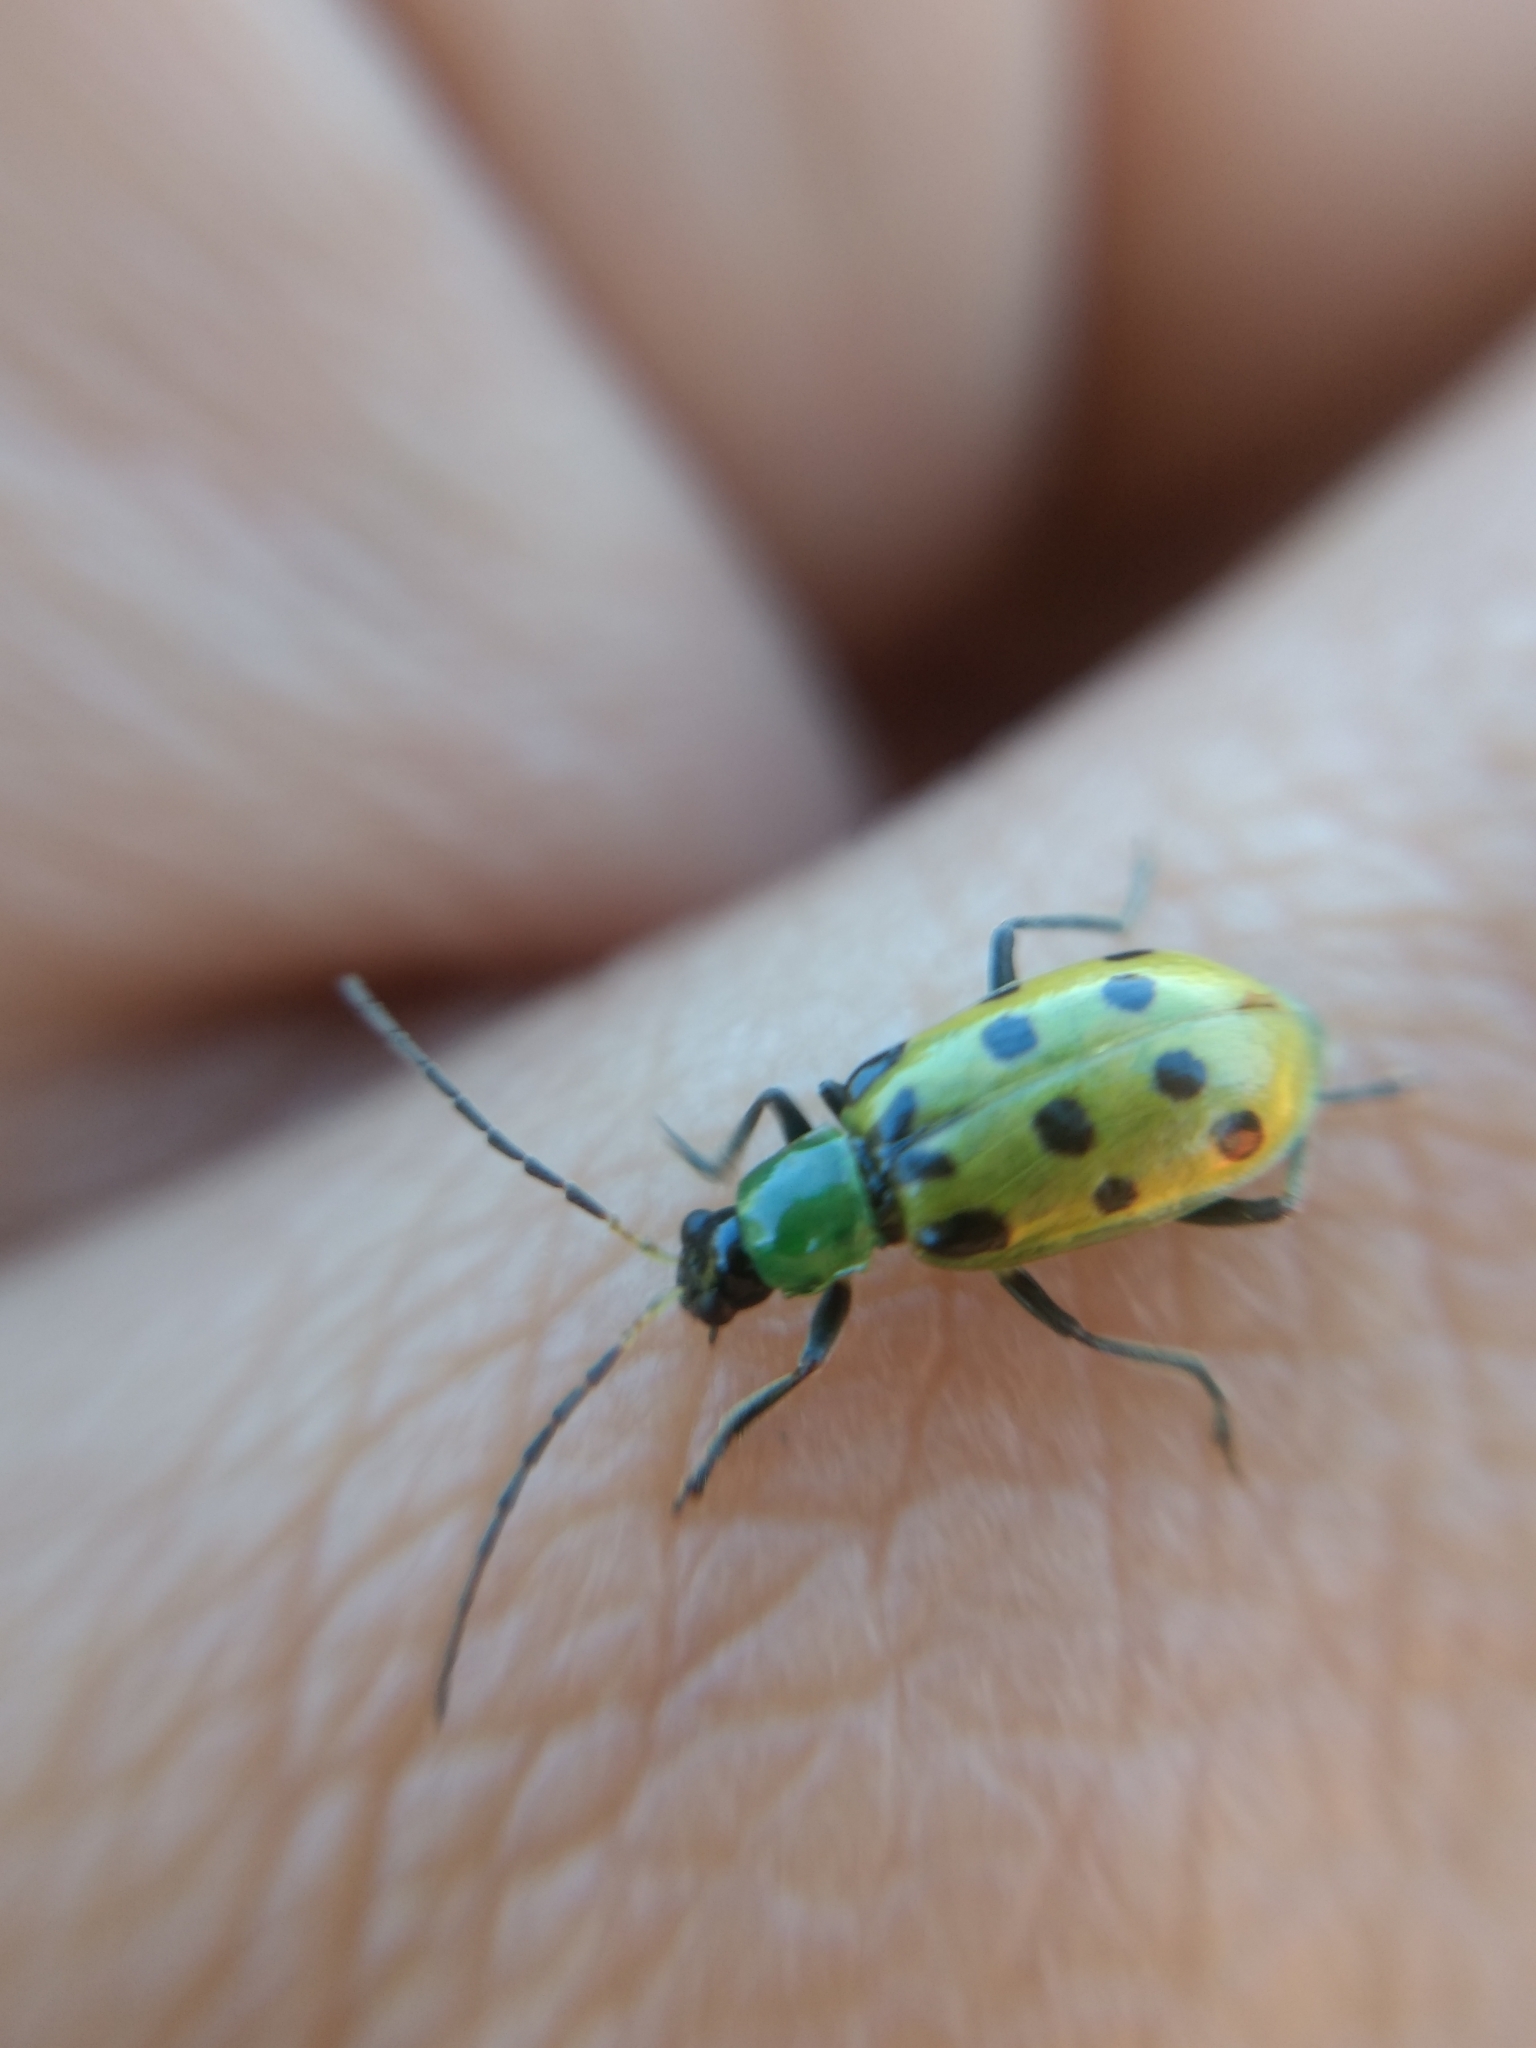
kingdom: Animalia
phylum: Arthropoda
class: Insecta
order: Coleoptera
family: Chrysomelidae
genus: Diabrotica
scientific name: Diabrotica undecimpunctata
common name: Spotted cucumber beetle
